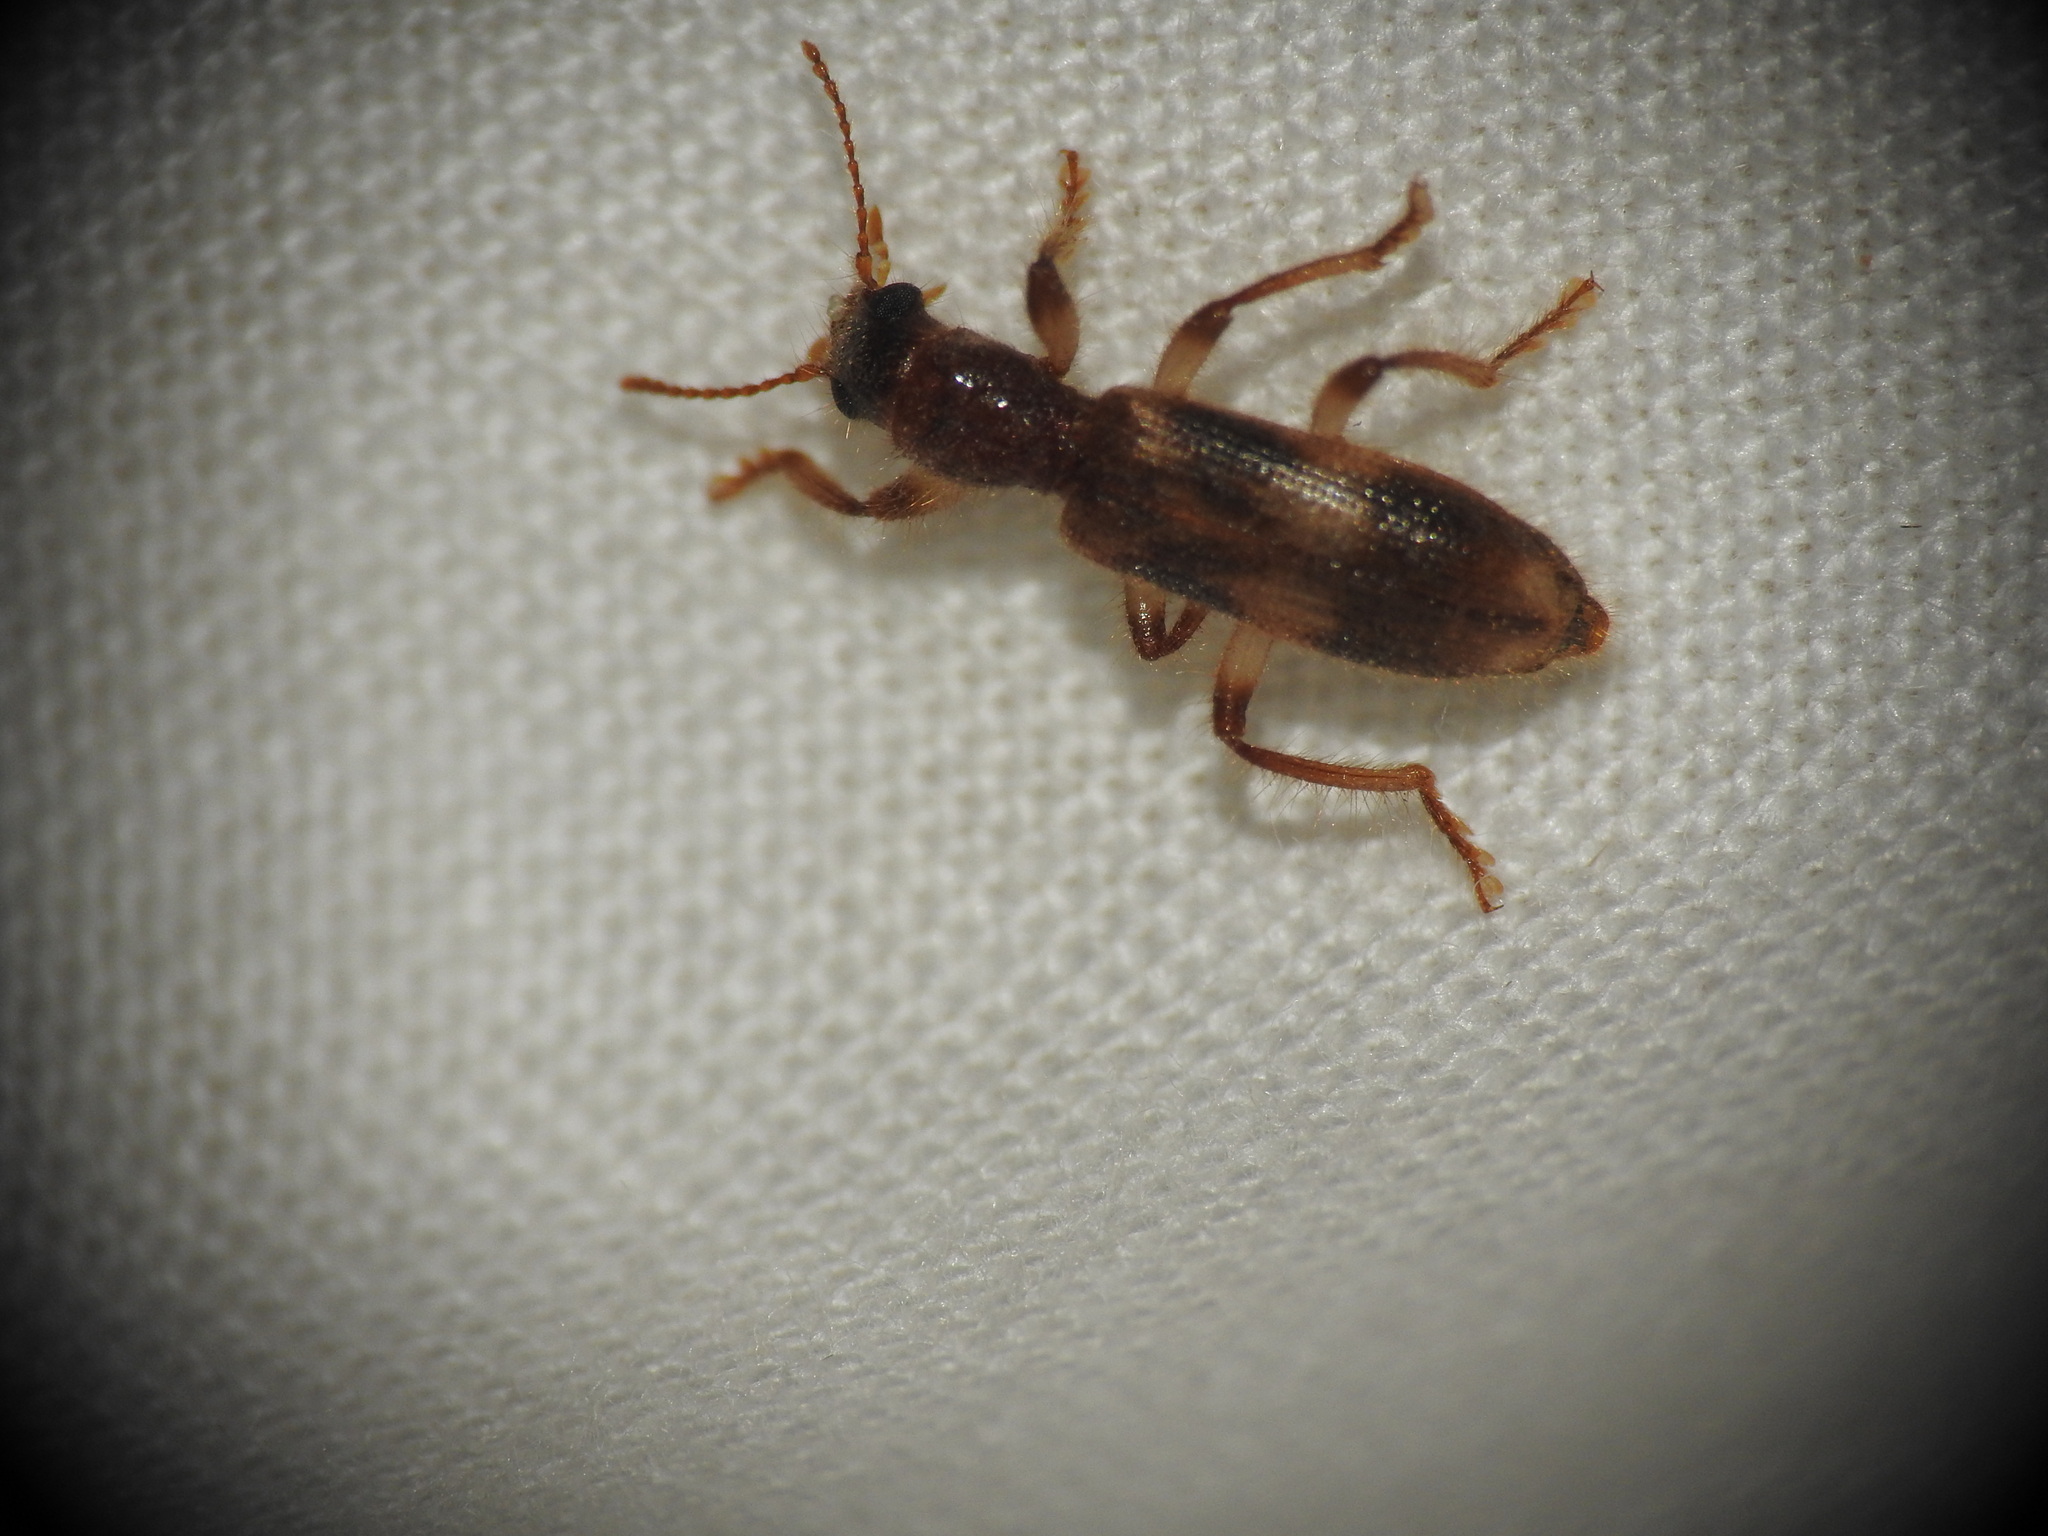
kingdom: Animalia
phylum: Arthropoda
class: Insecta
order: Coleoptera
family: Cleridae
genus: Opilo
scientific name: Opilo domesticus
